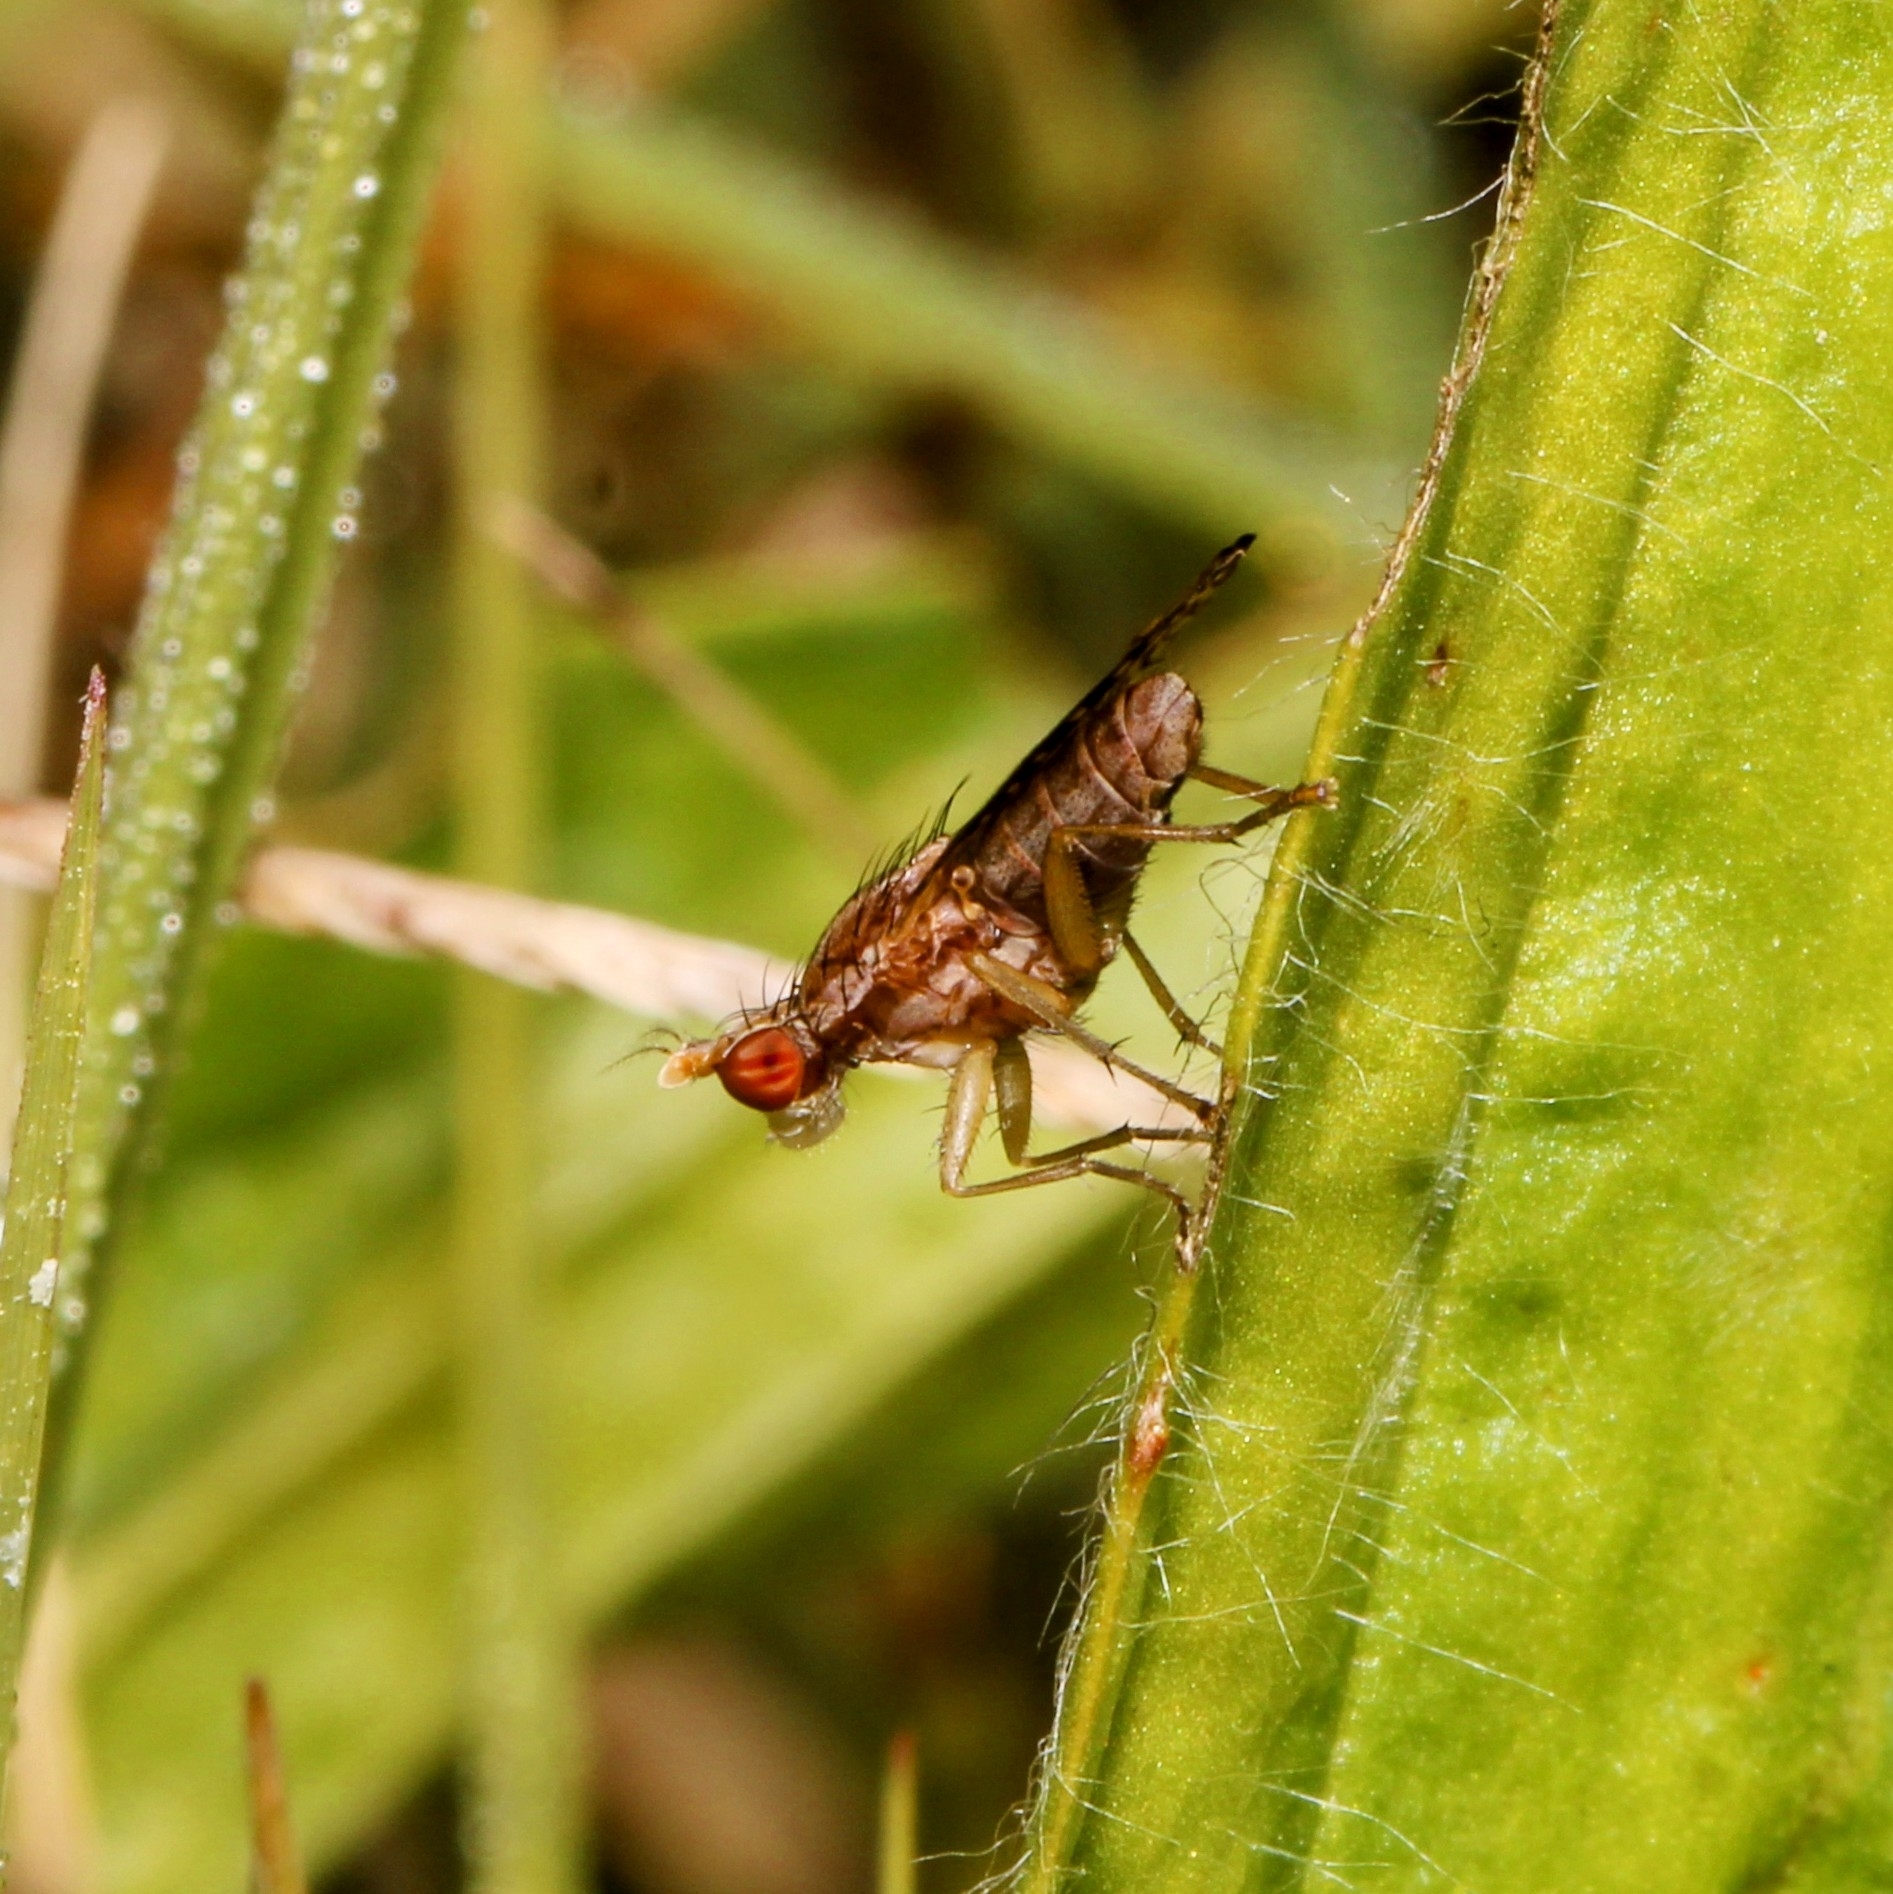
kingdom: Animalia
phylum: Arthropoda
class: Insecta
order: Diptera
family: Sciomyzidae
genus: Trypetoptera
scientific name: Trypetoptera canadensis
